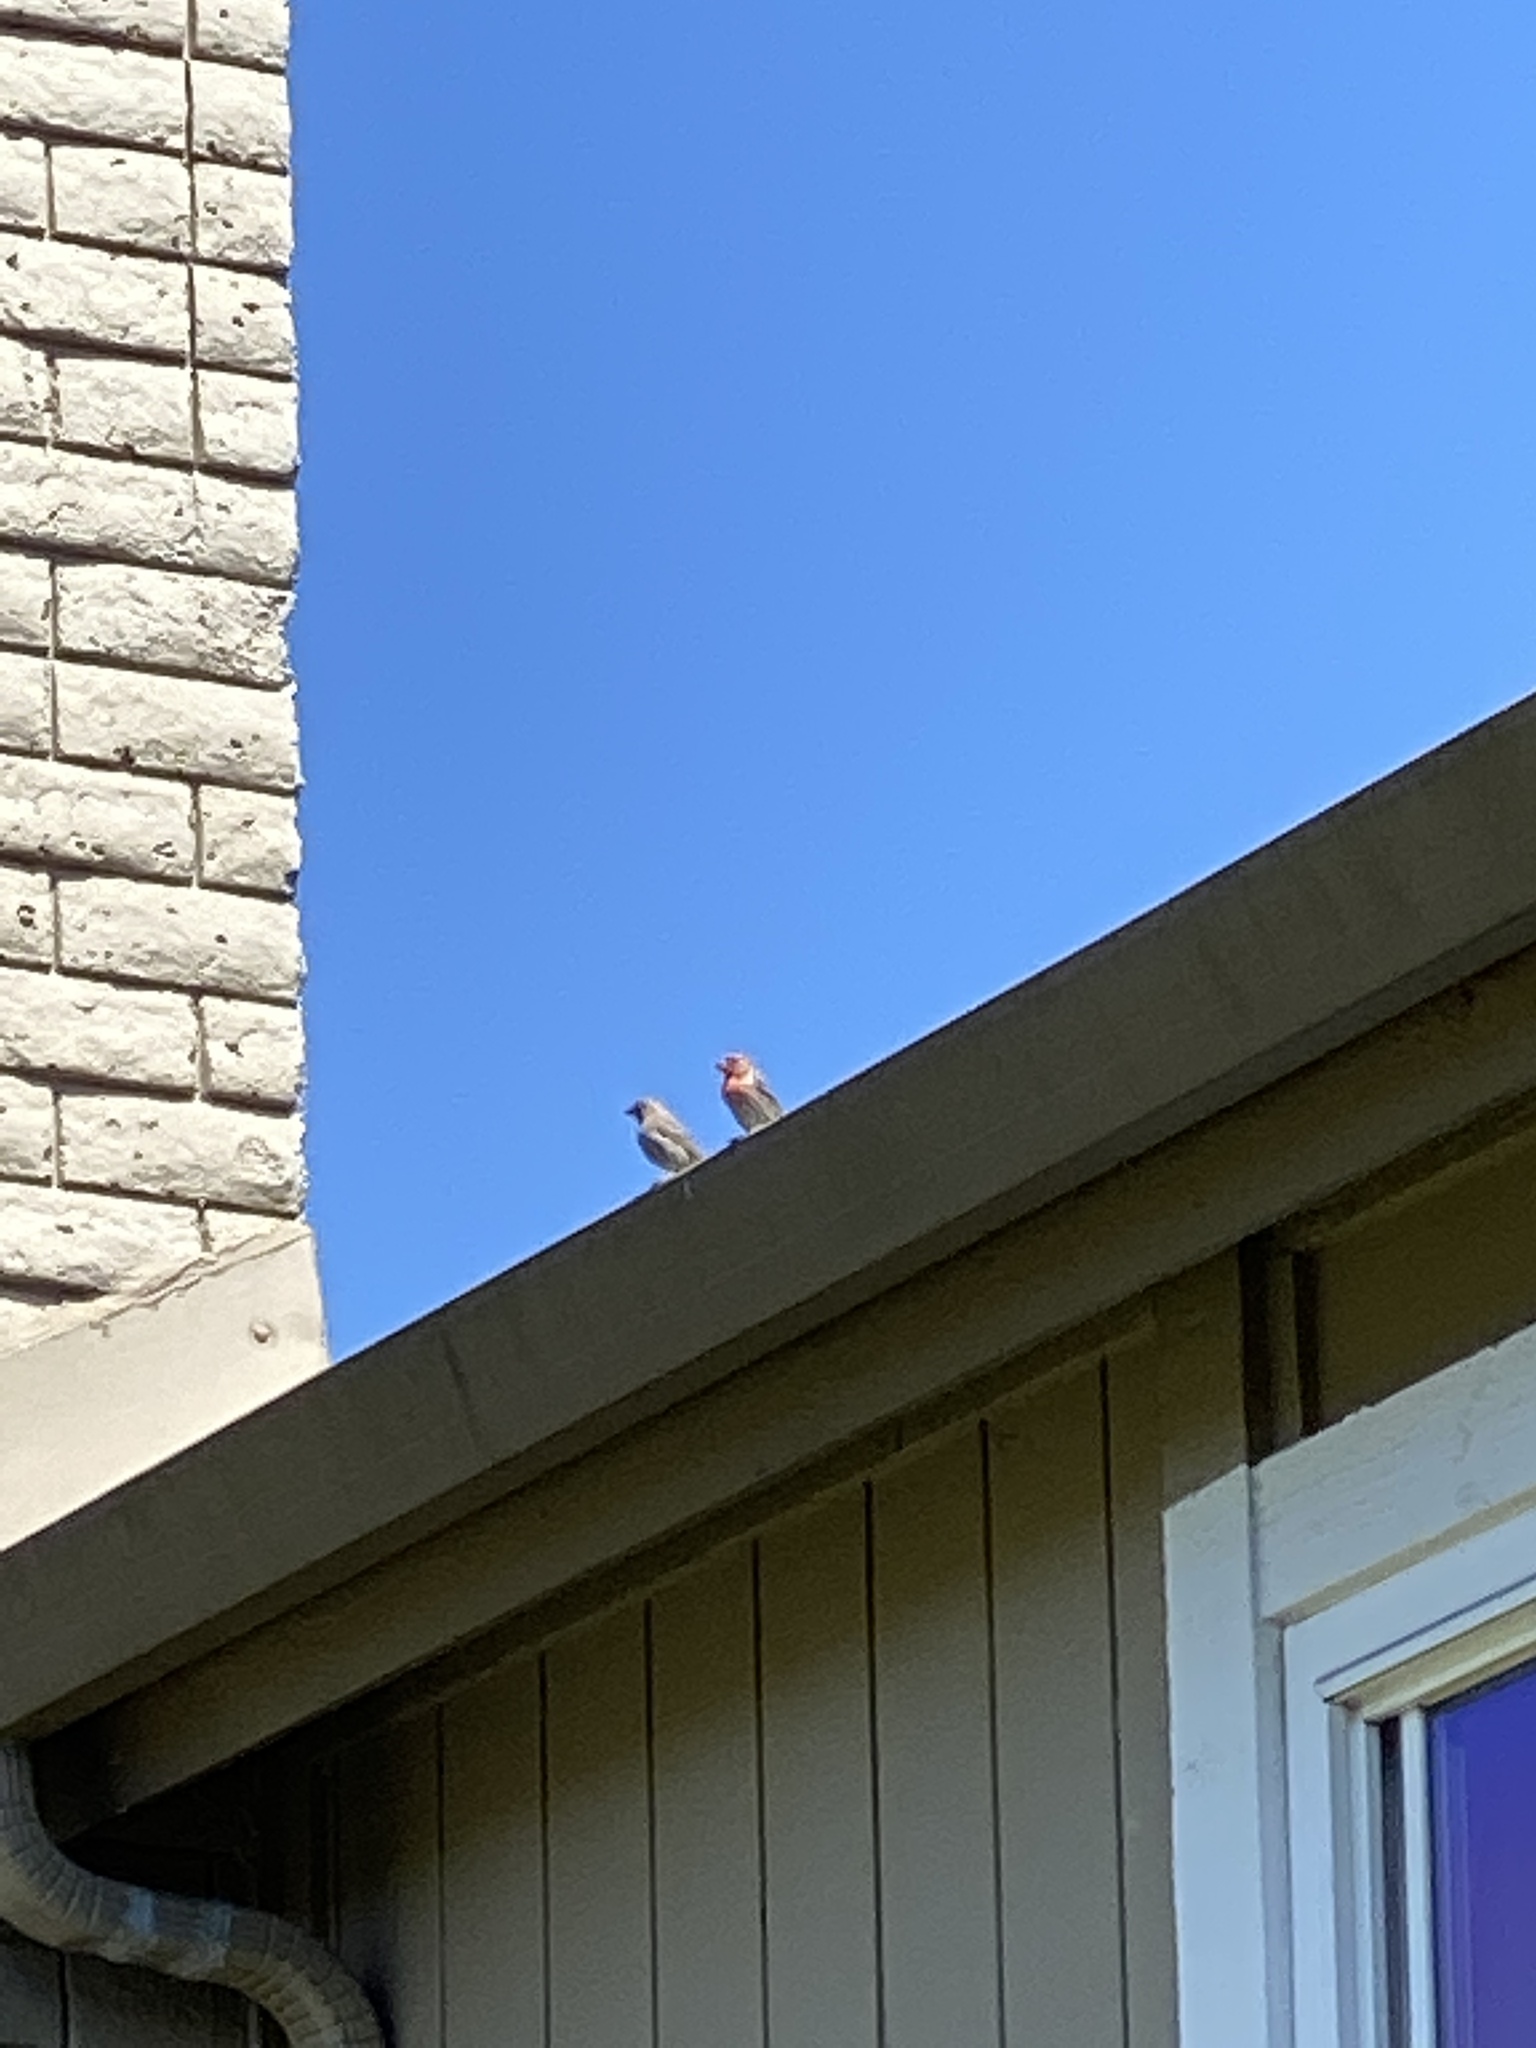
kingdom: Animalia
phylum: Chordata
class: Aves
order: Passeriformes
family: Fringillidae
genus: Haemorhous
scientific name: Haemorhous mexicanus
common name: House finch
